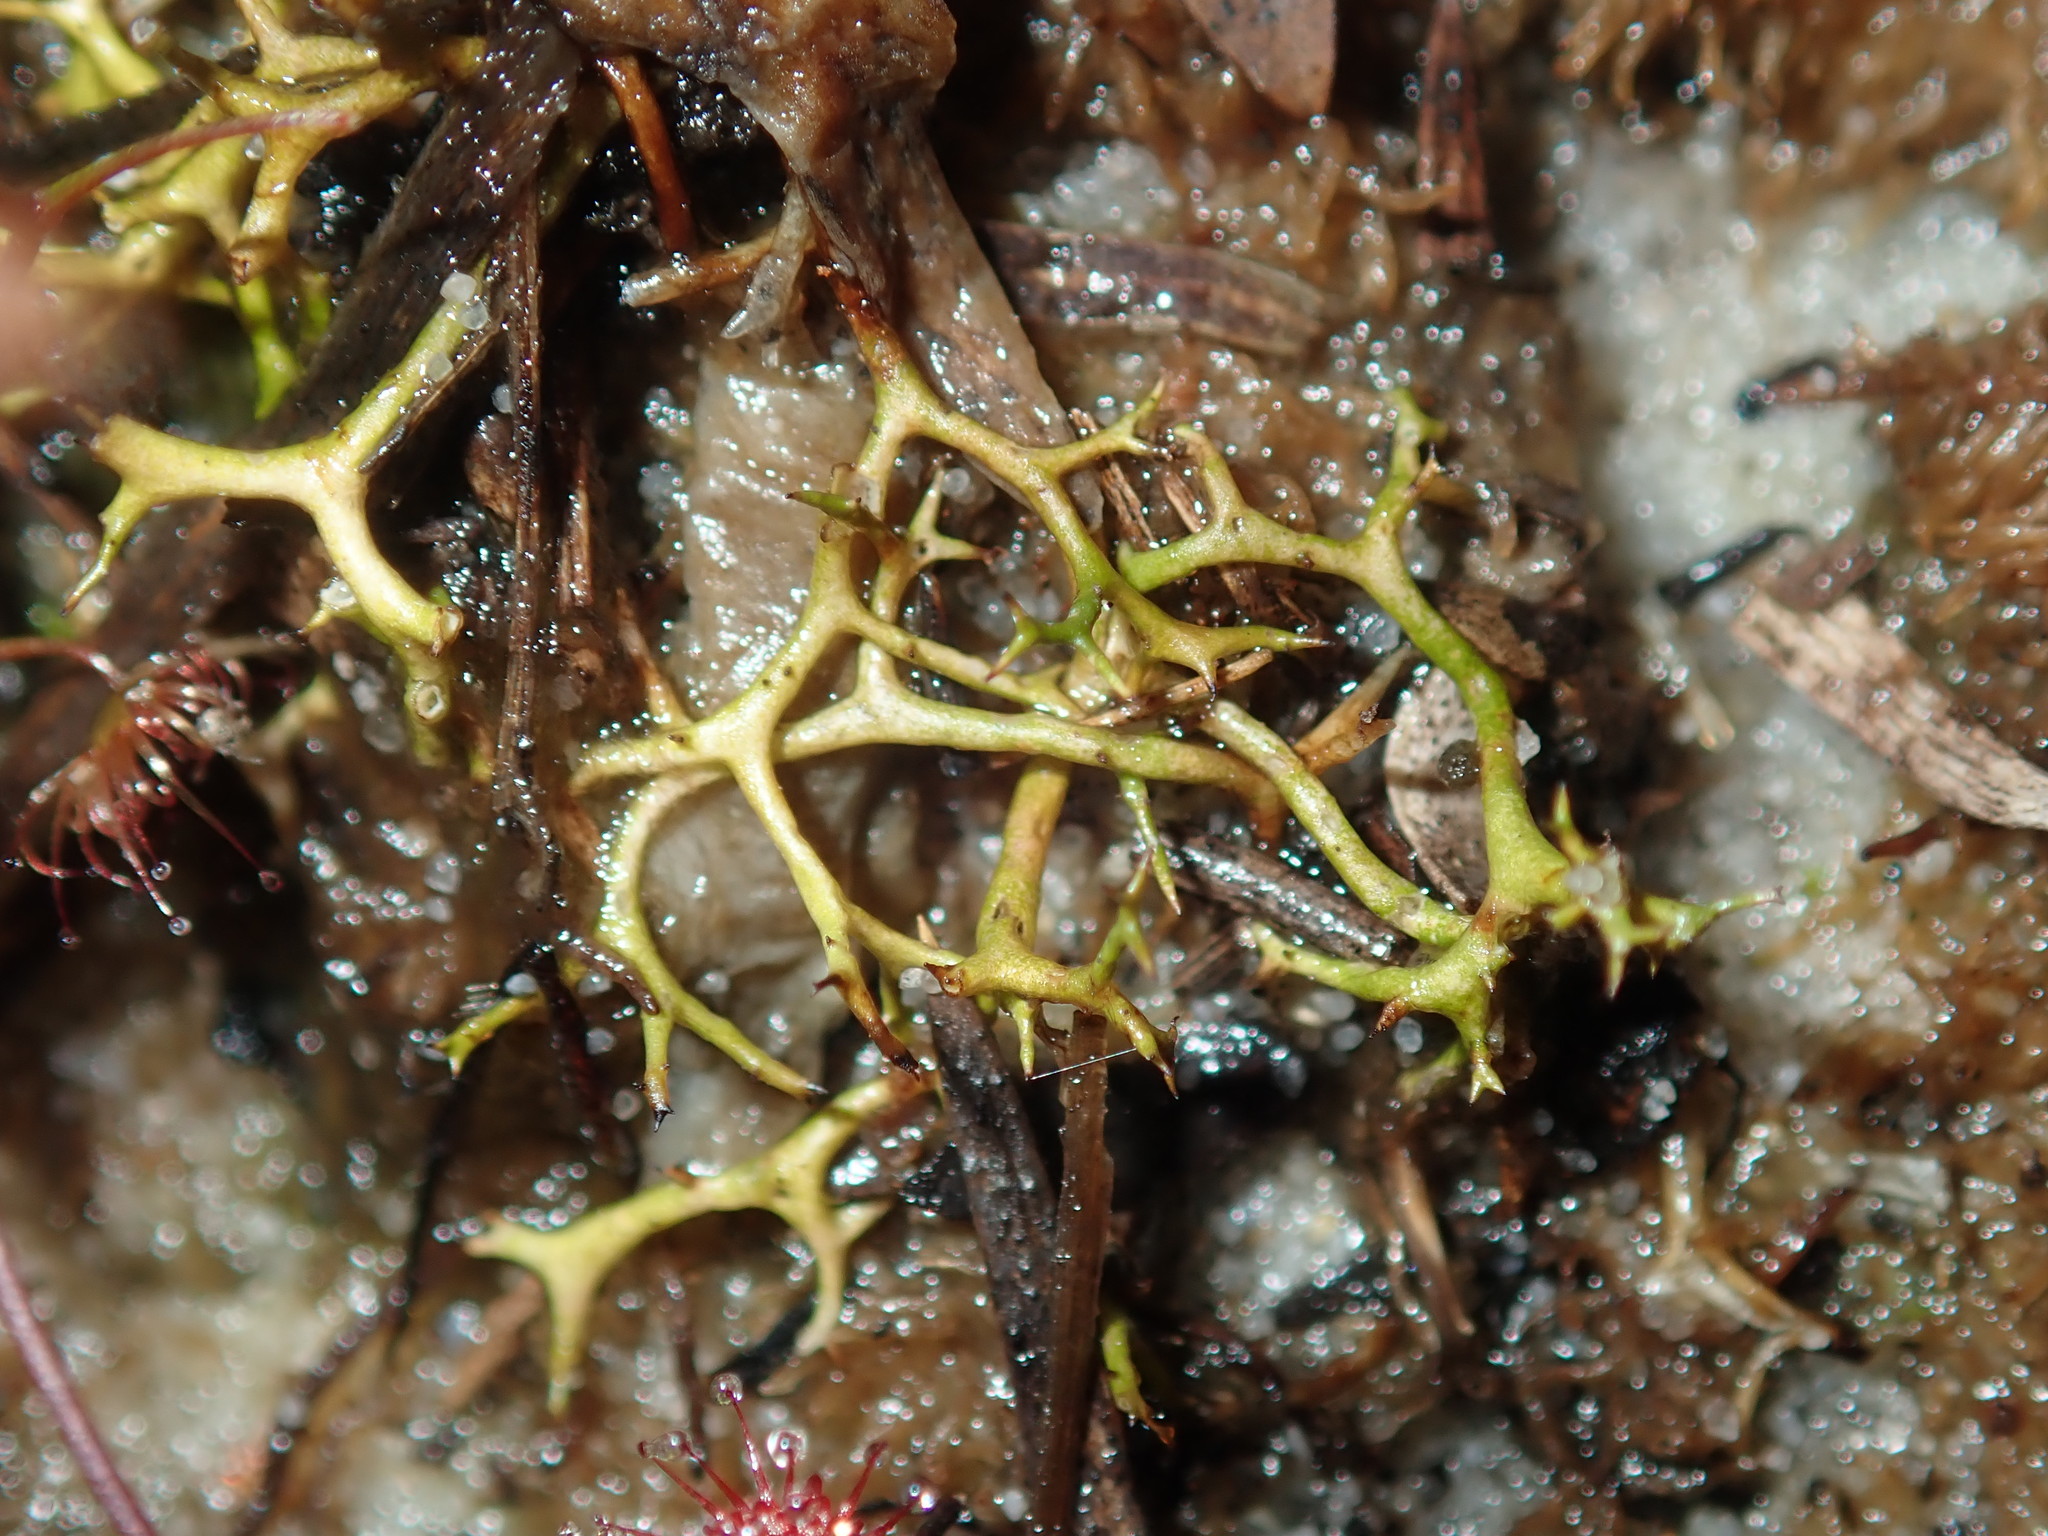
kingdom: Fungi
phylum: Ascomycota
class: Lecanoromycetes
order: Lecanorales
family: Cladoniaceae
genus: Cladia
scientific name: Cladia aggregata
